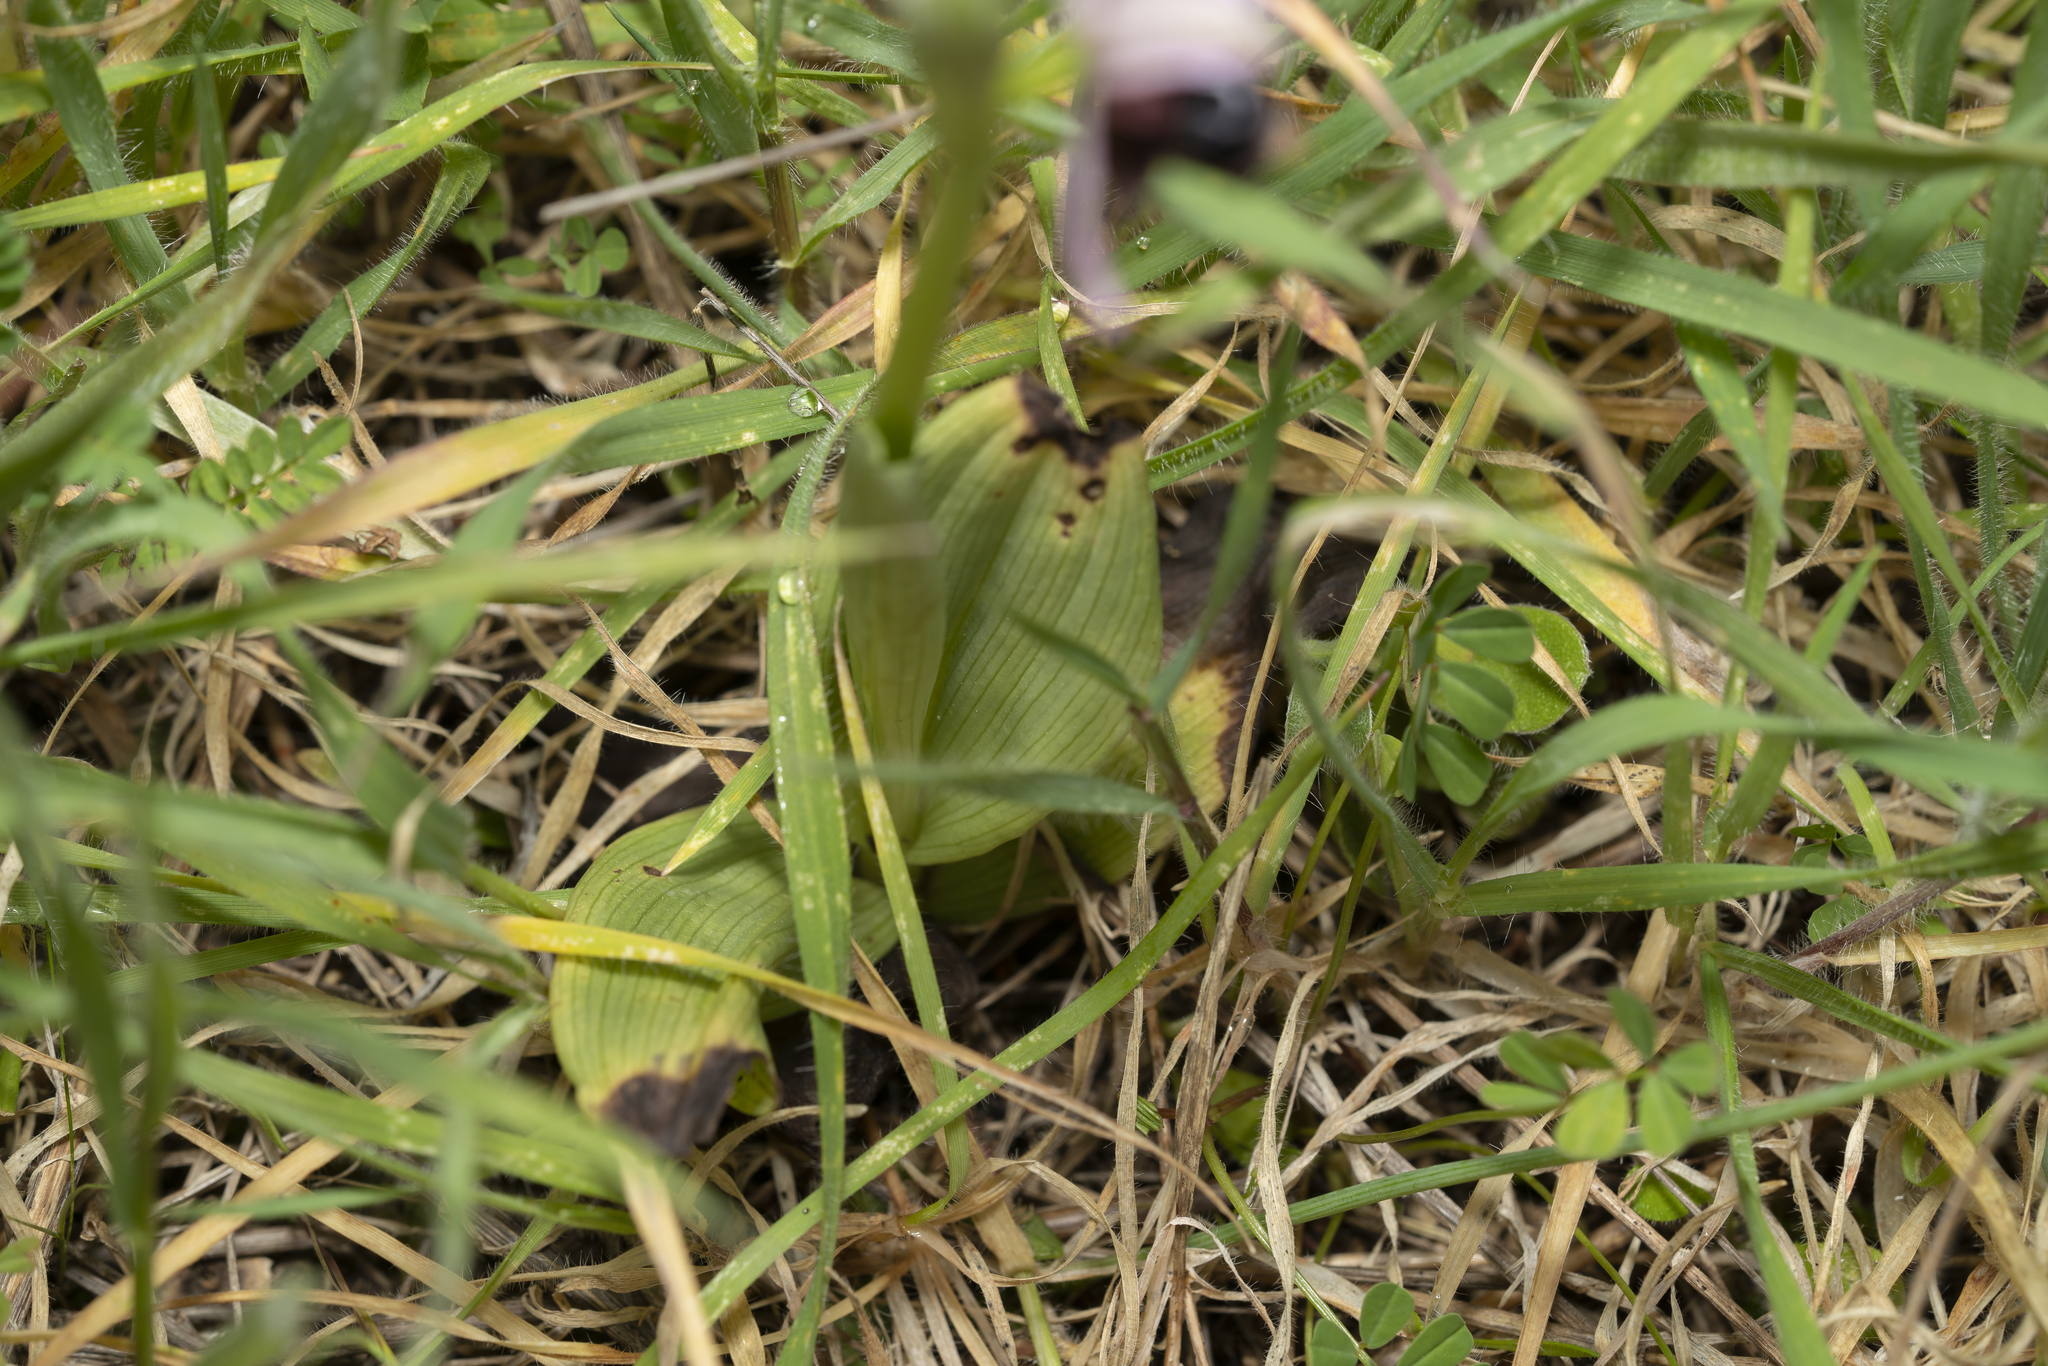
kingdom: Plantae
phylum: Tracheophyta
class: Liliopsida
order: Asparagales
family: Orchidaceae
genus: Ophrys
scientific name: Ophrys reinholdii
